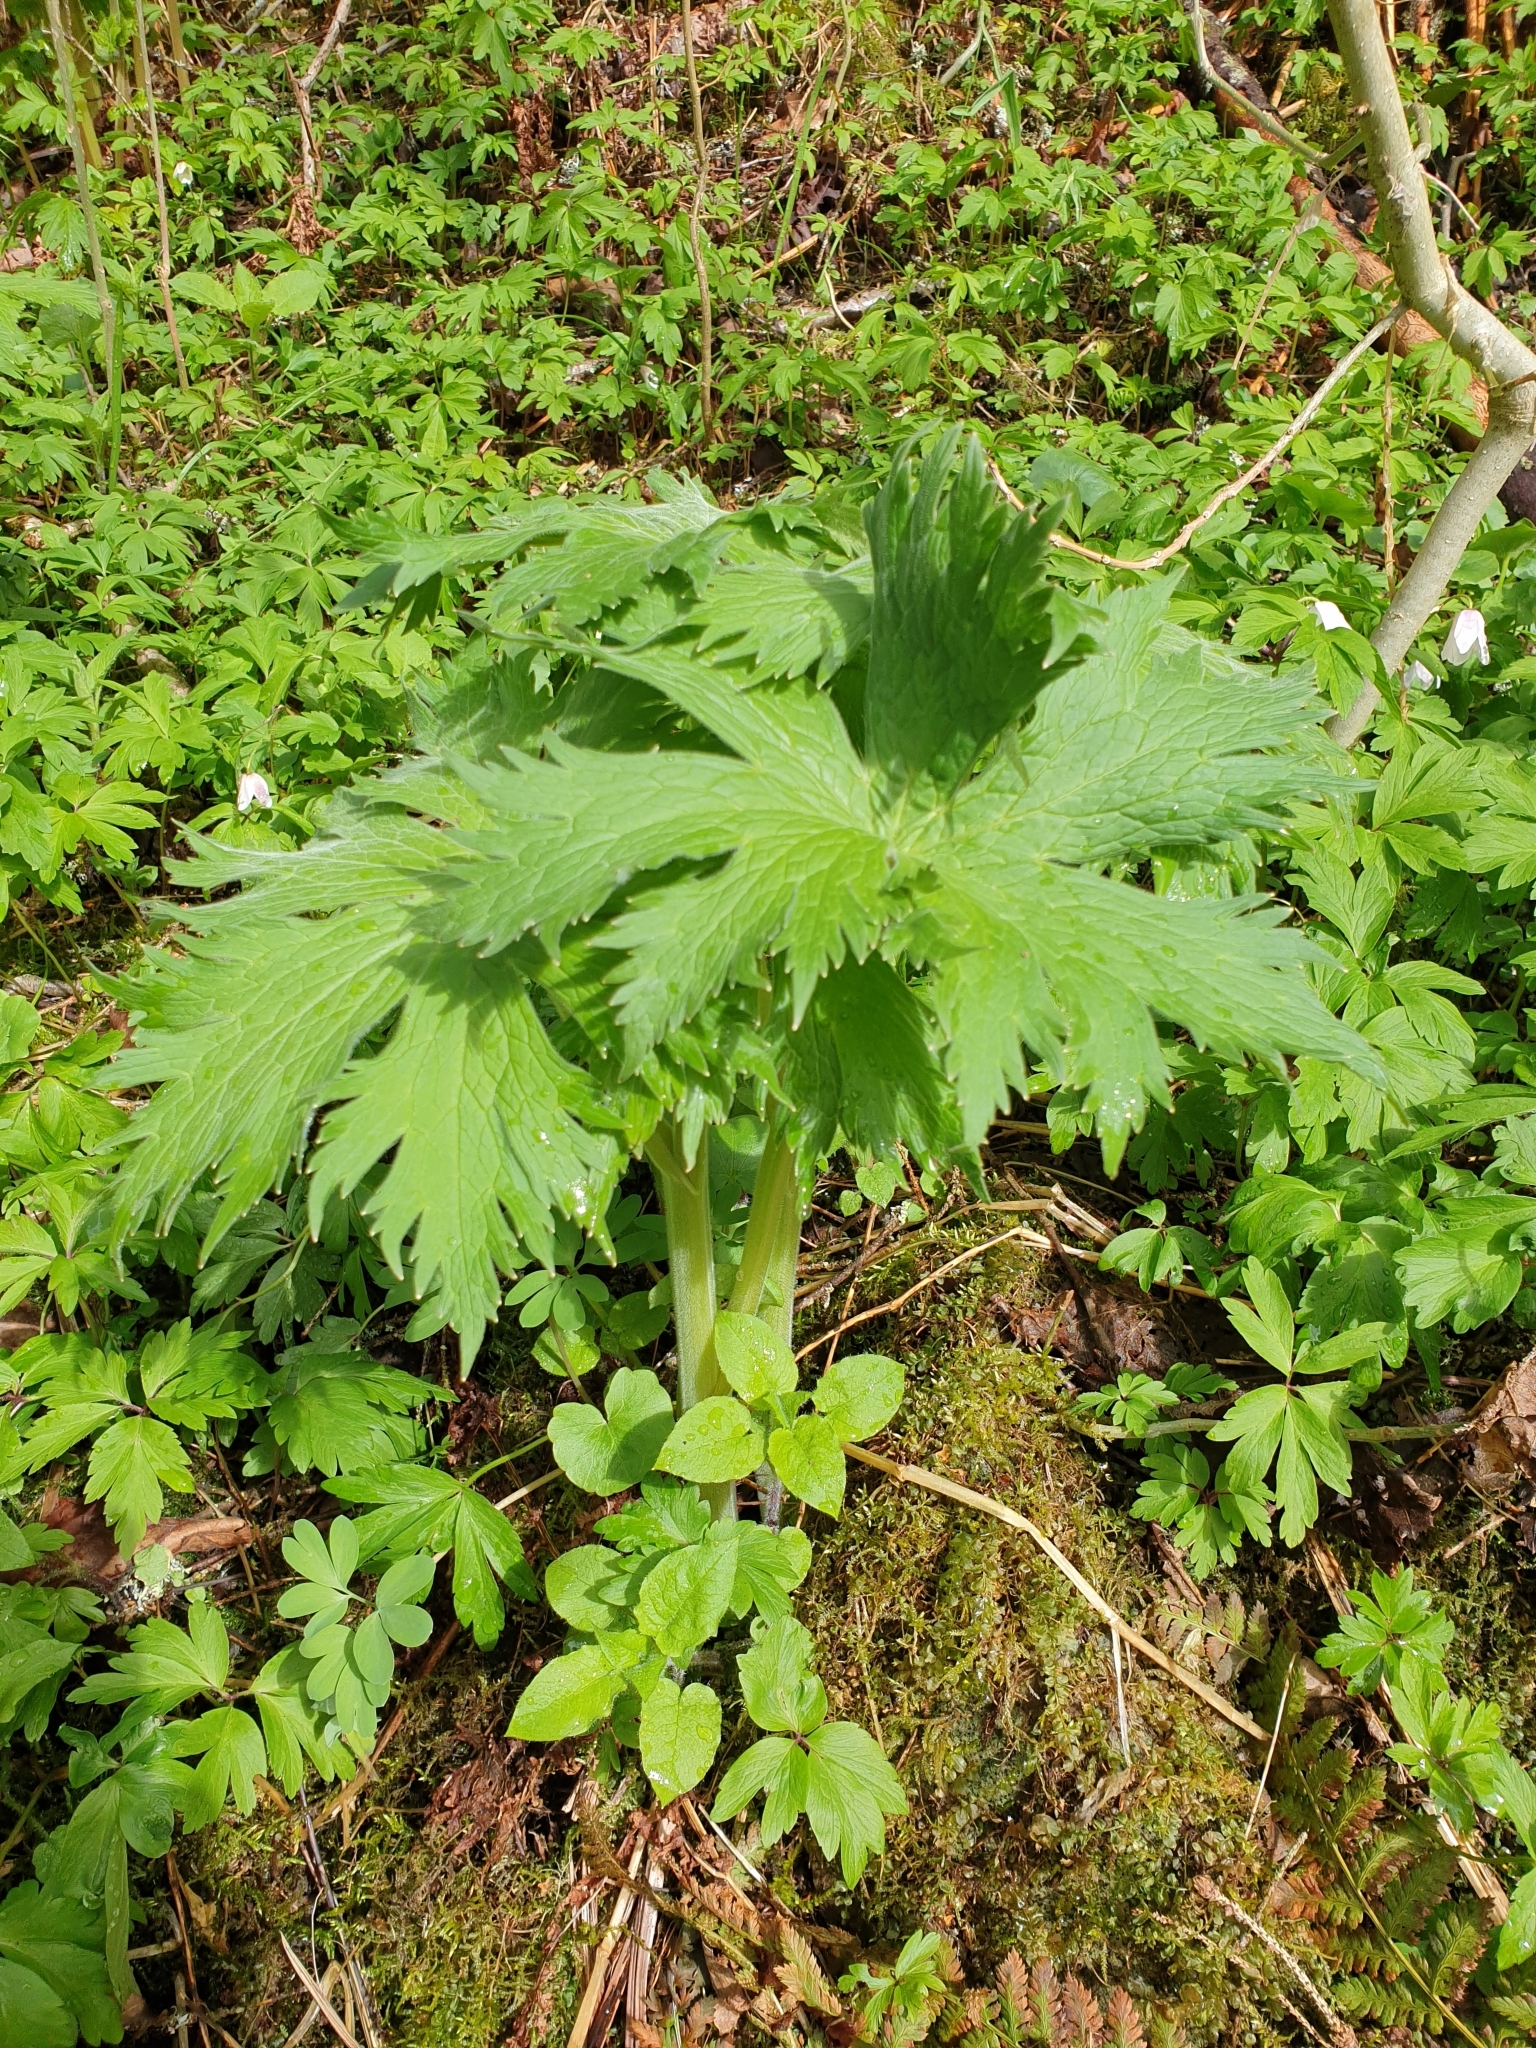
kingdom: Plantae
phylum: Tracheophyta
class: Magnoliopsida
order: Ranunculales
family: Ranunculaceae
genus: Aconitum
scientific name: Aconitum septentrionale
